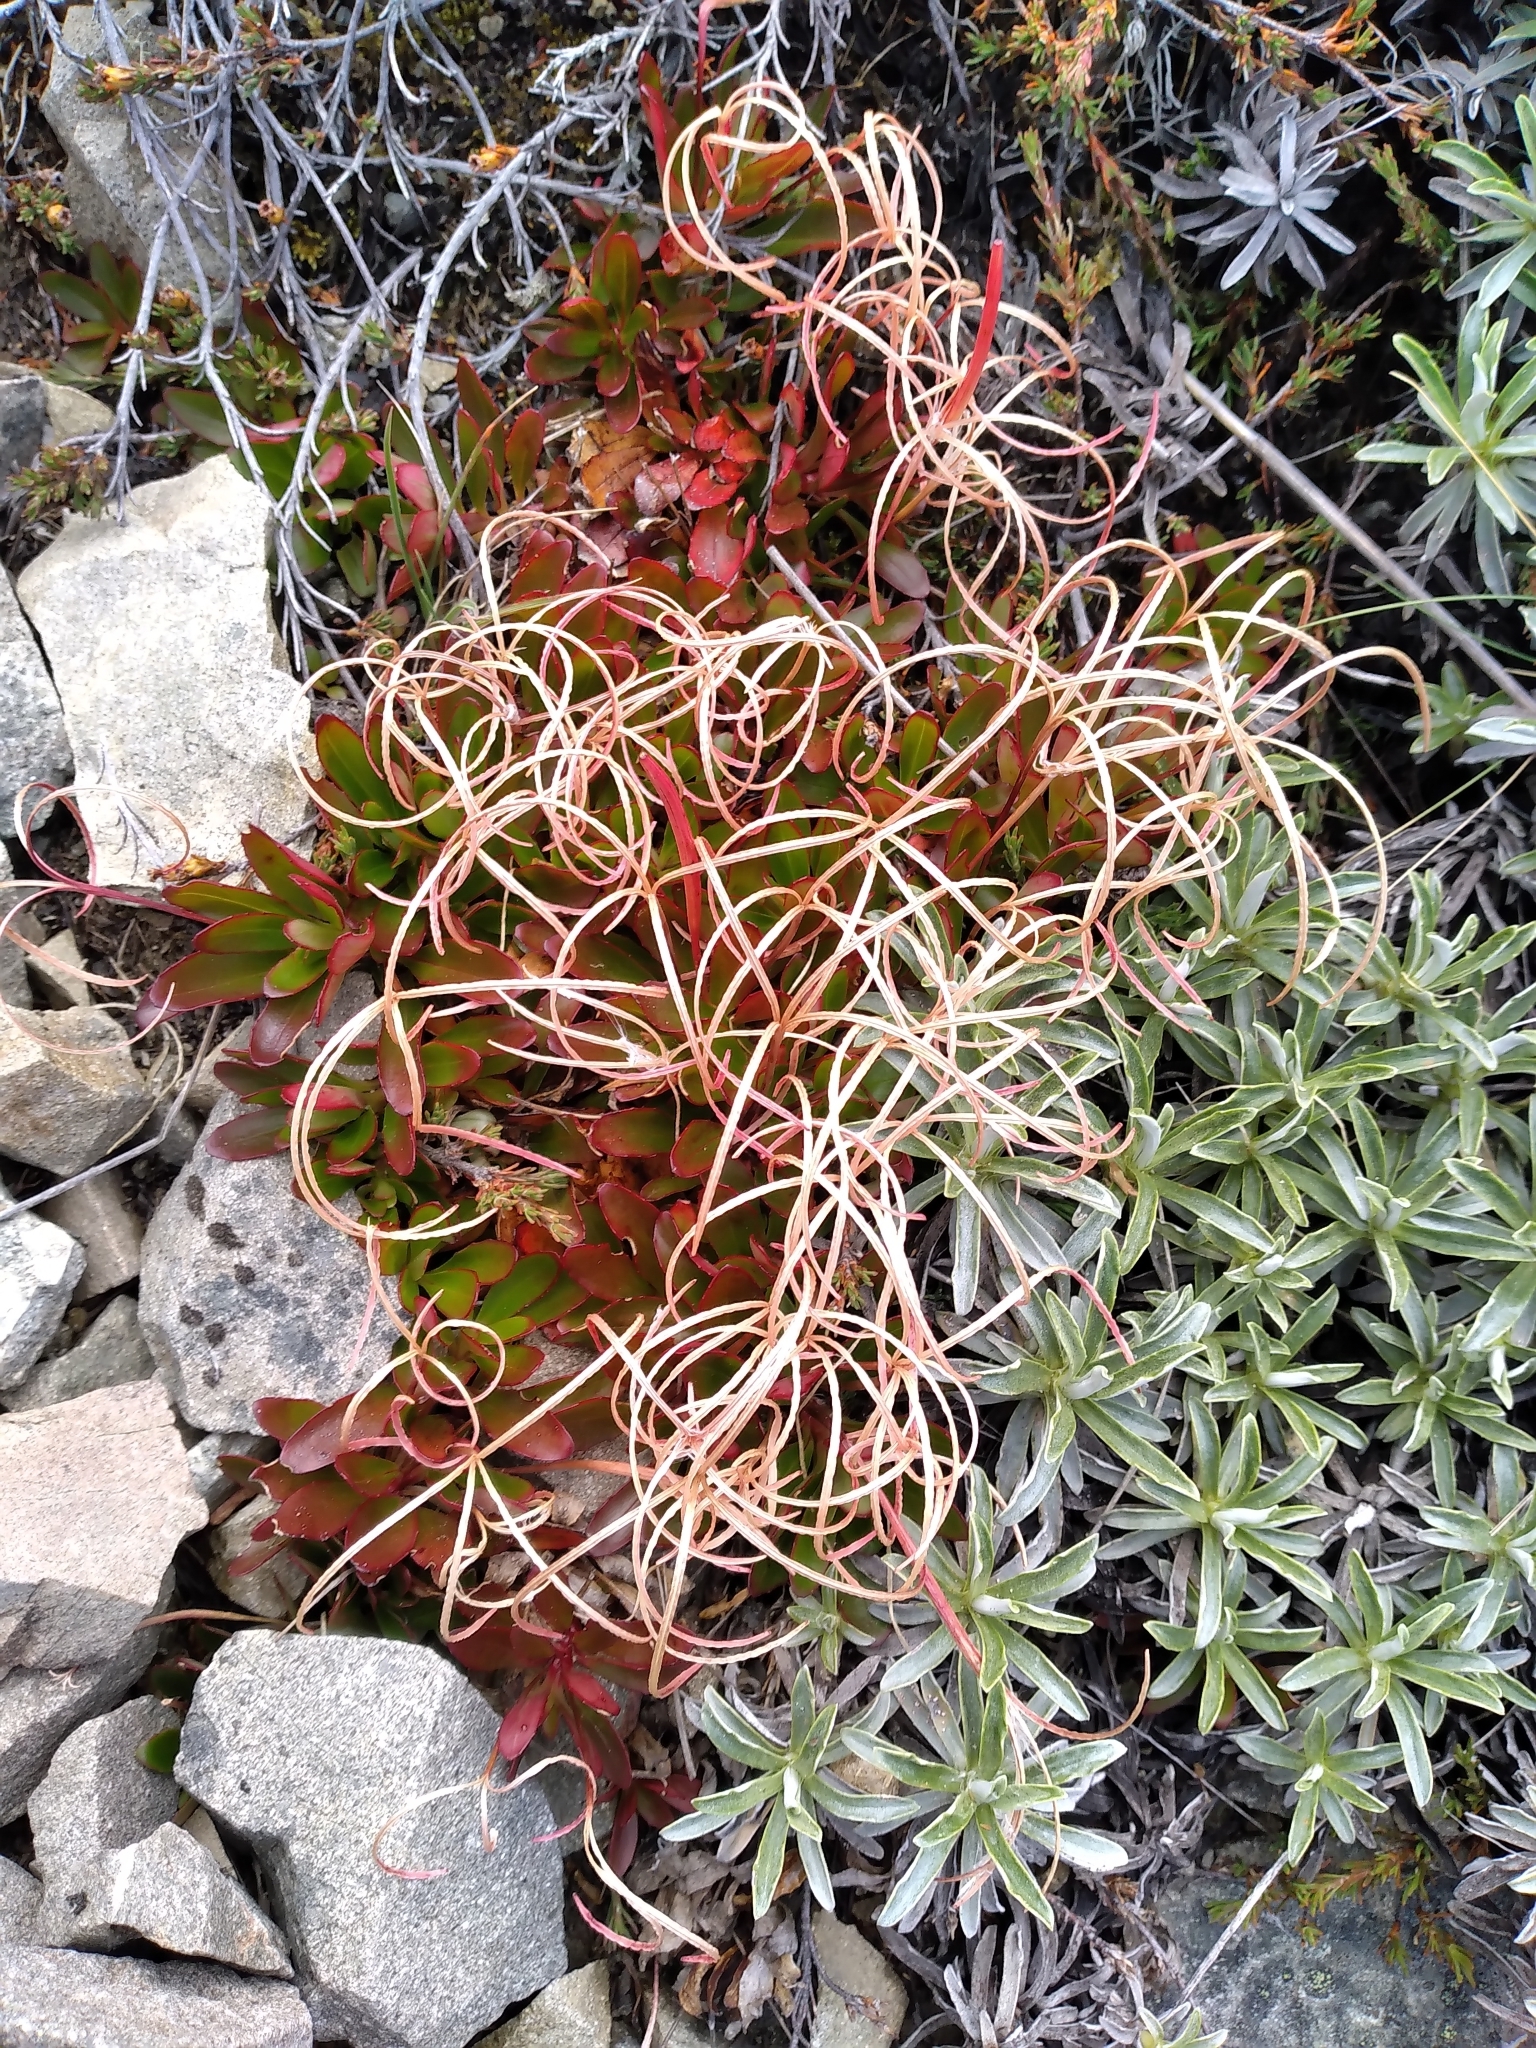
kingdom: Plantae
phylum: Tracheophyta
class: Magnoliopsida
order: Myrtales
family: Onagraceae
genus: Epilobium
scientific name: Epilobium petraeum
